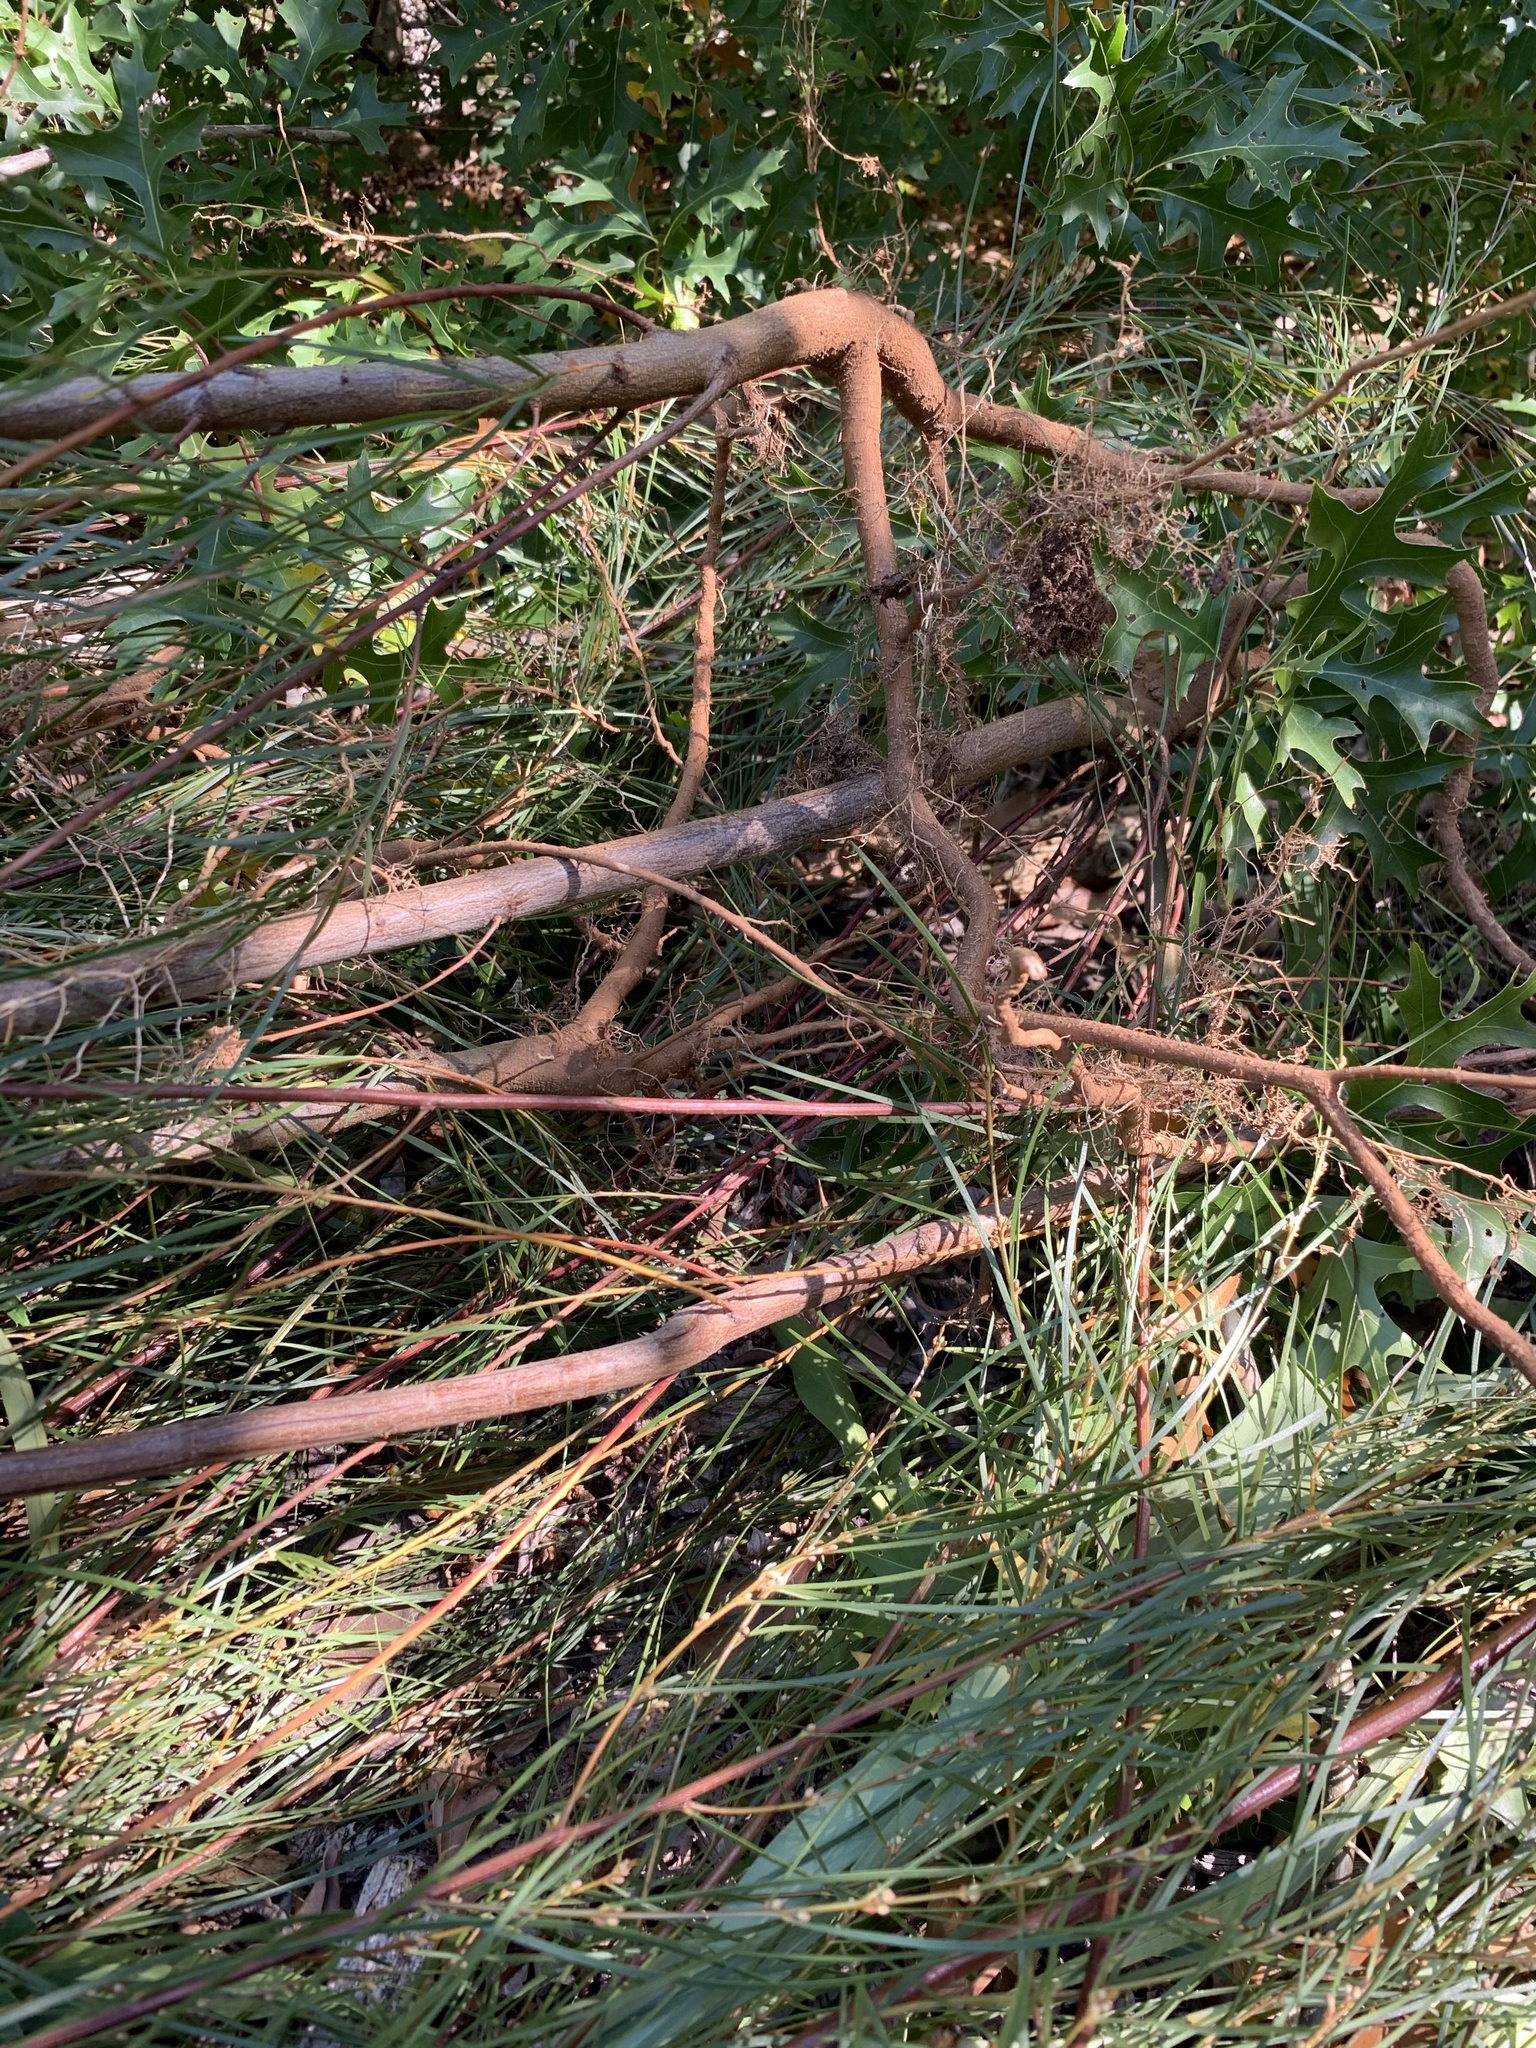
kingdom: Plantae
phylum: Tracheophyta
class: Magnoliopsida
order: Fabales
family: Fabaceae
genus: Acacia
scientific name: Acacia viscidula
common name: Sticky wattle
